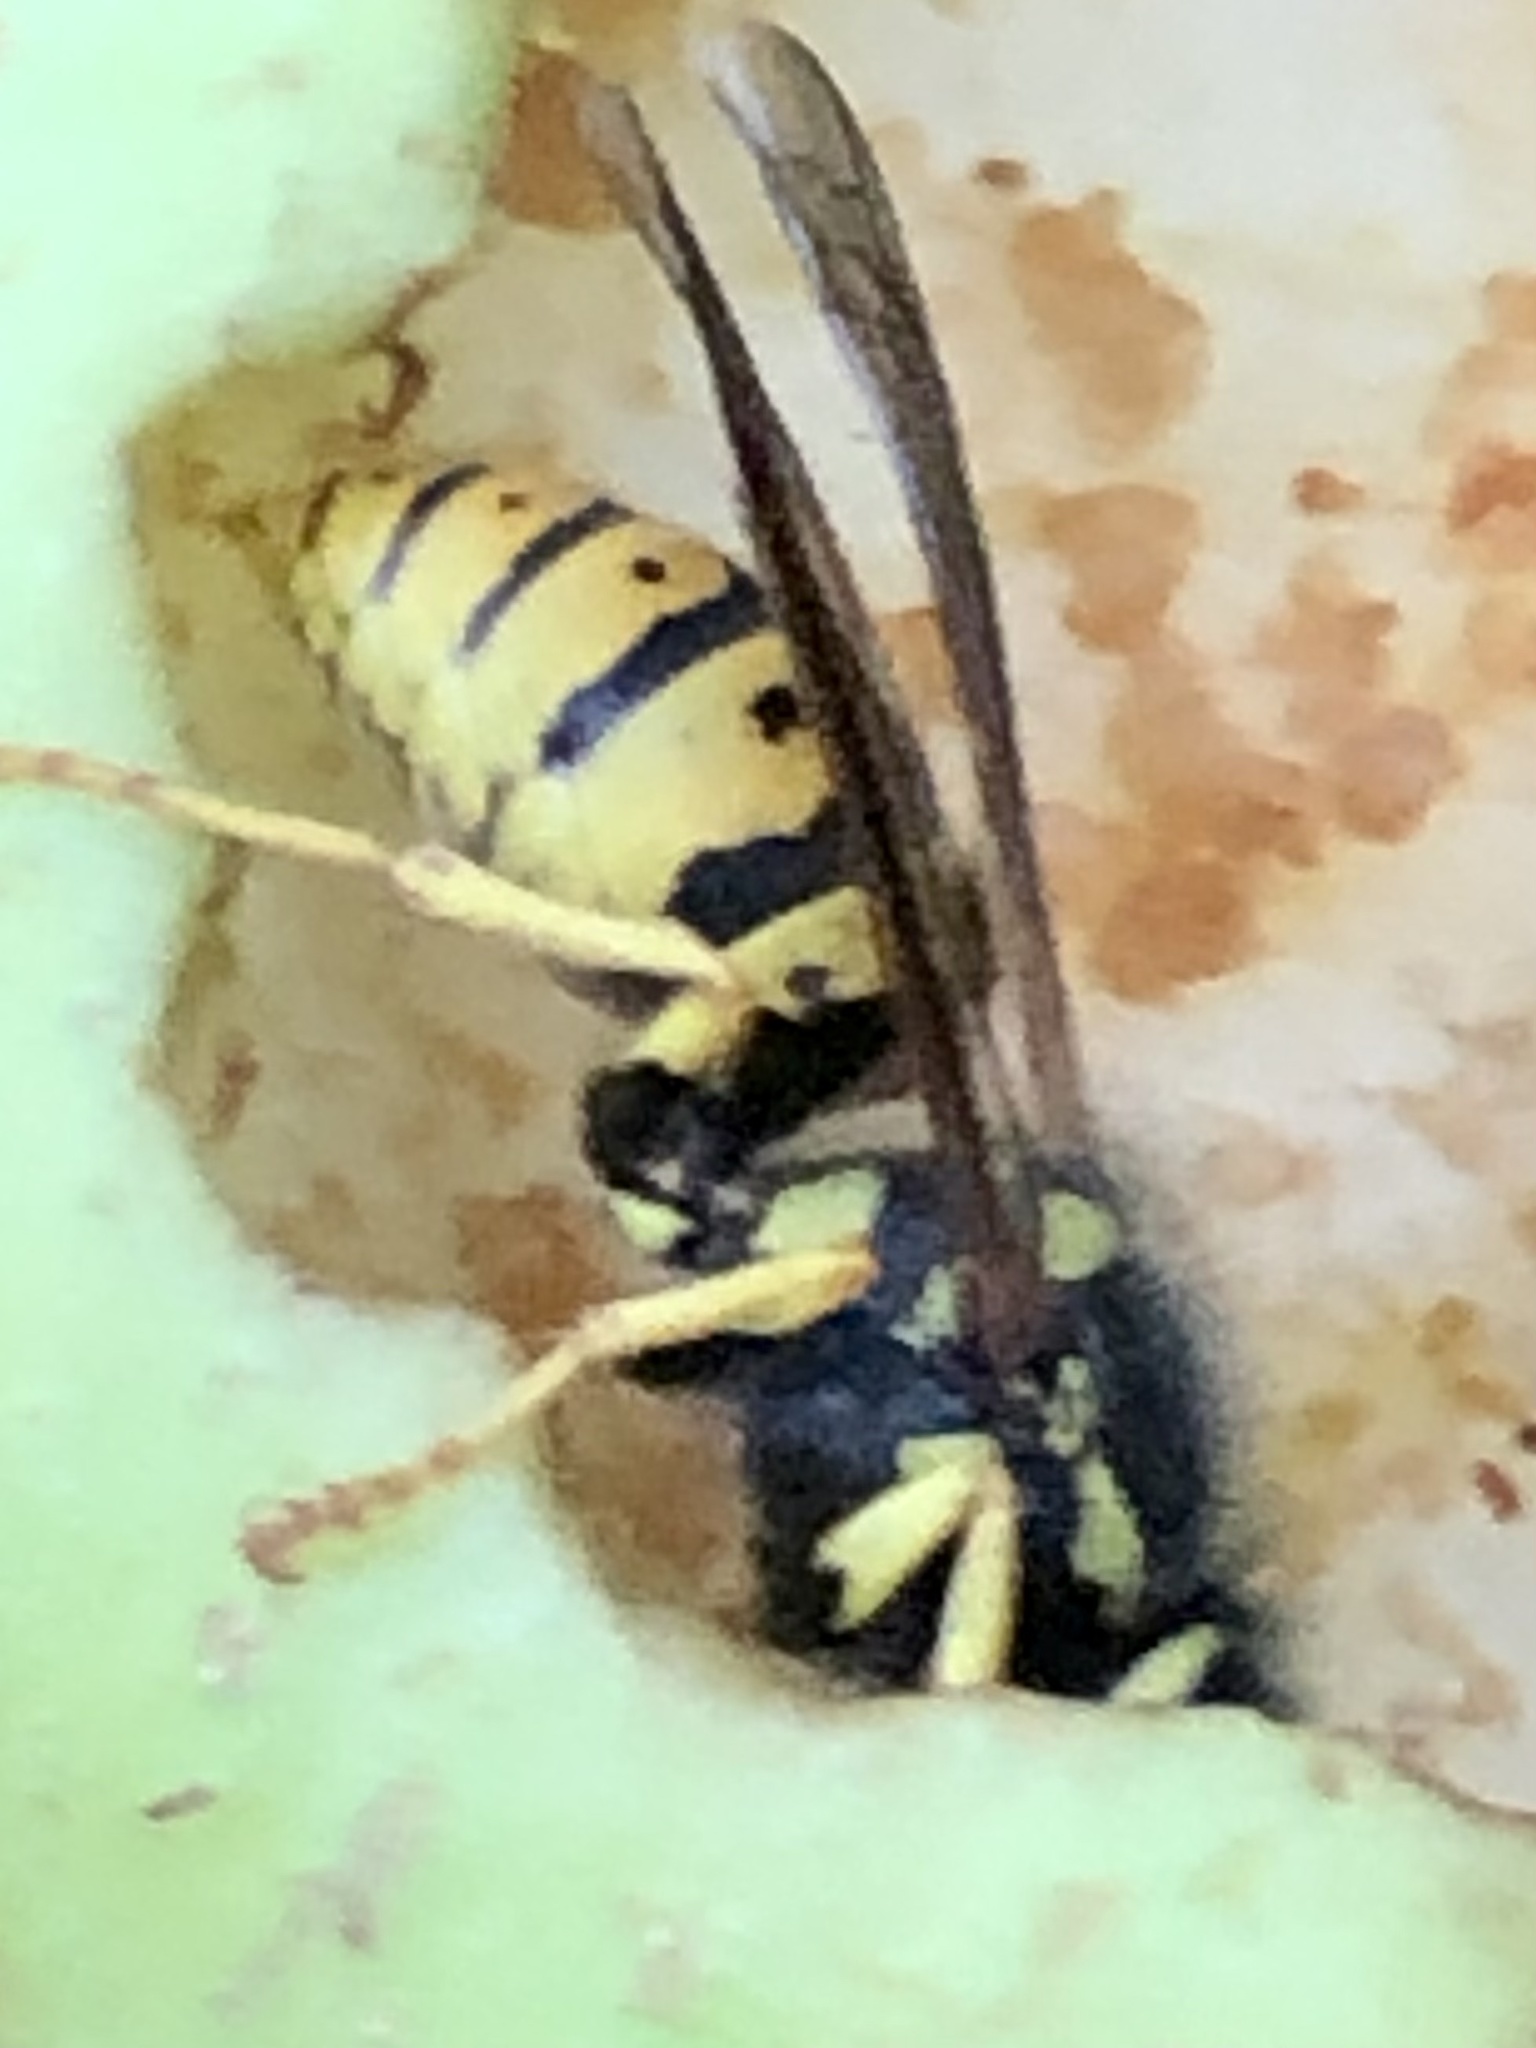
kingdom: Animalia
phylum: Arthropoda
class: Insecta
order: Hymenoptera
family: Vespidae
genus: Vespula
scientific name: Vespula germanica
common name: German wasp
